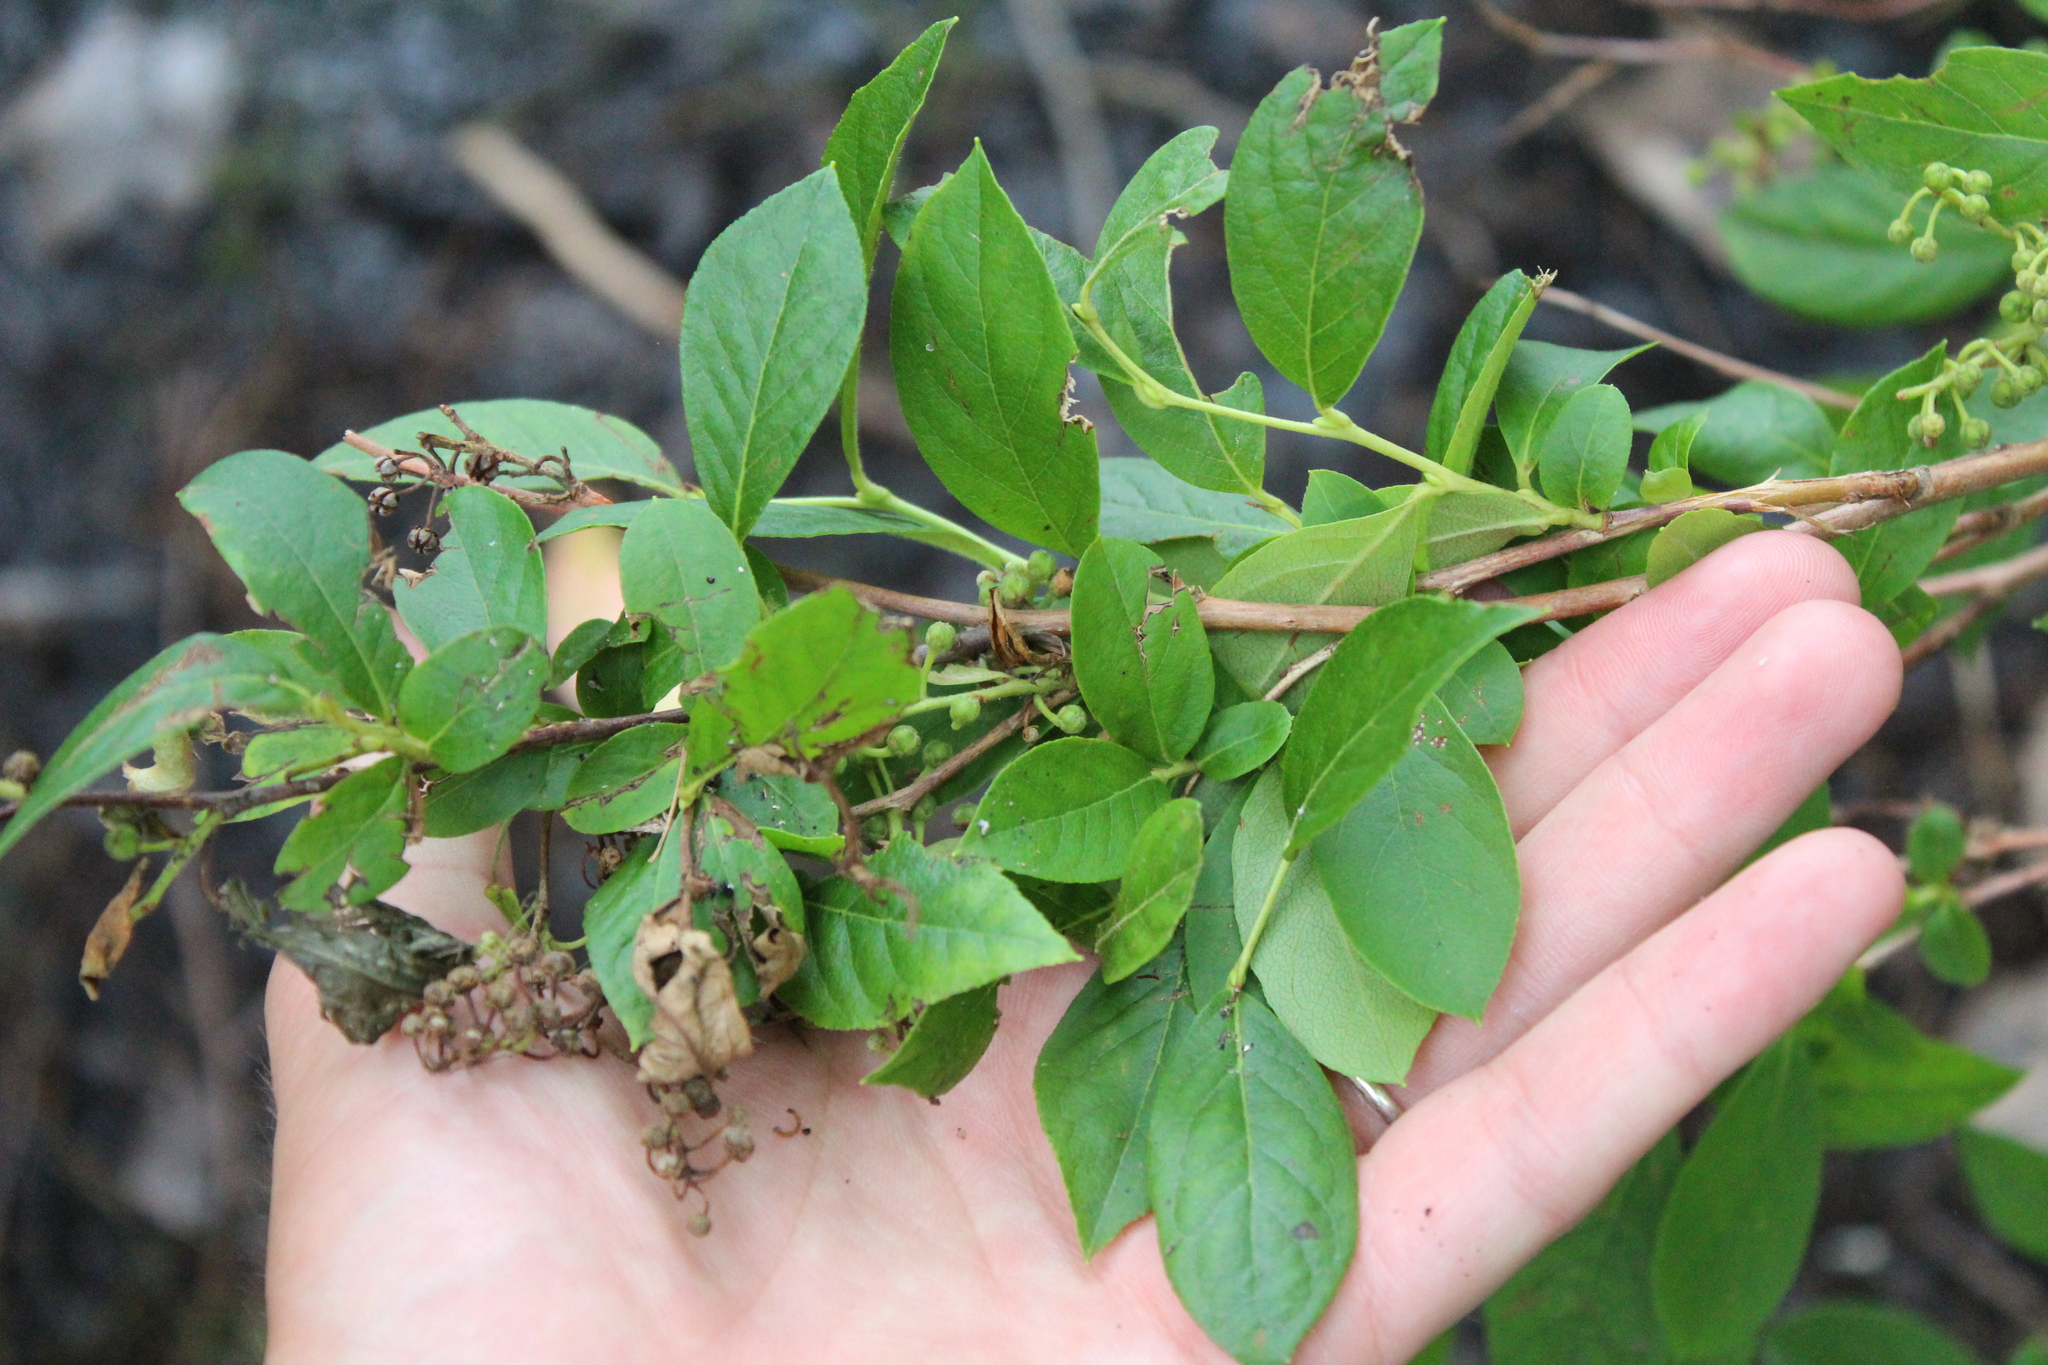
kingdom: Plantae
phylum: Tracheophyta
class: Magnoliopsida
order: Ericales
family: Ericaceae
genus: Lyonia
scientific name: Lyonia ligustrina
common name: Maleberry
